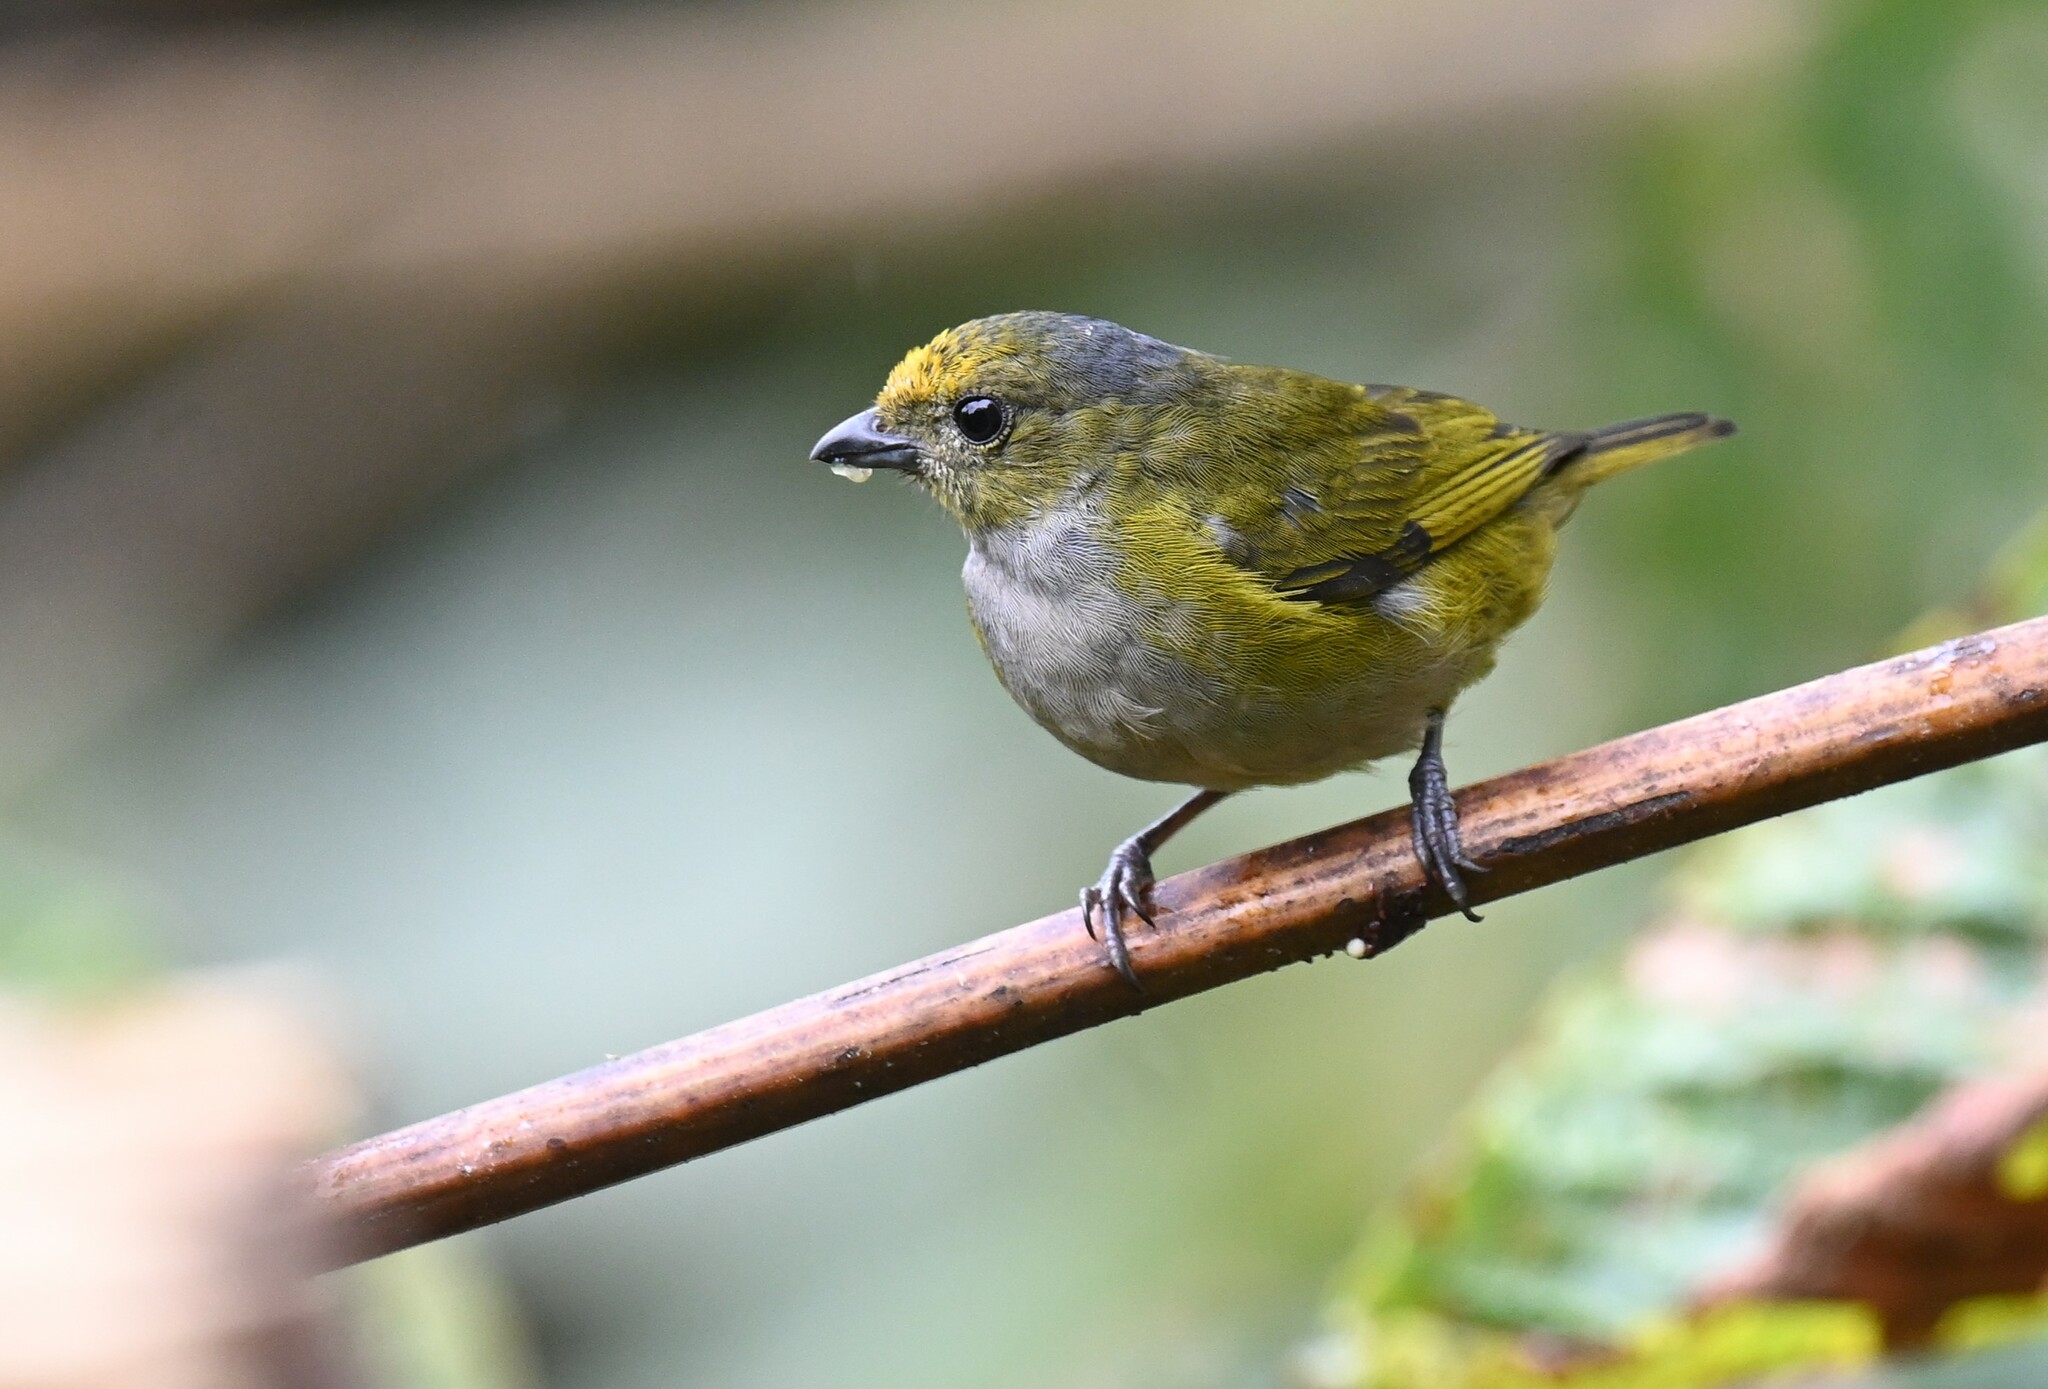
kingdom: Animalia
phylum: Chordata
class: Aves
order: Passeriformes
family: Fringillidae
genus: Euphonia
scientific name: Euphonia xanthogaster
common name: Orange-bellied euphonia
